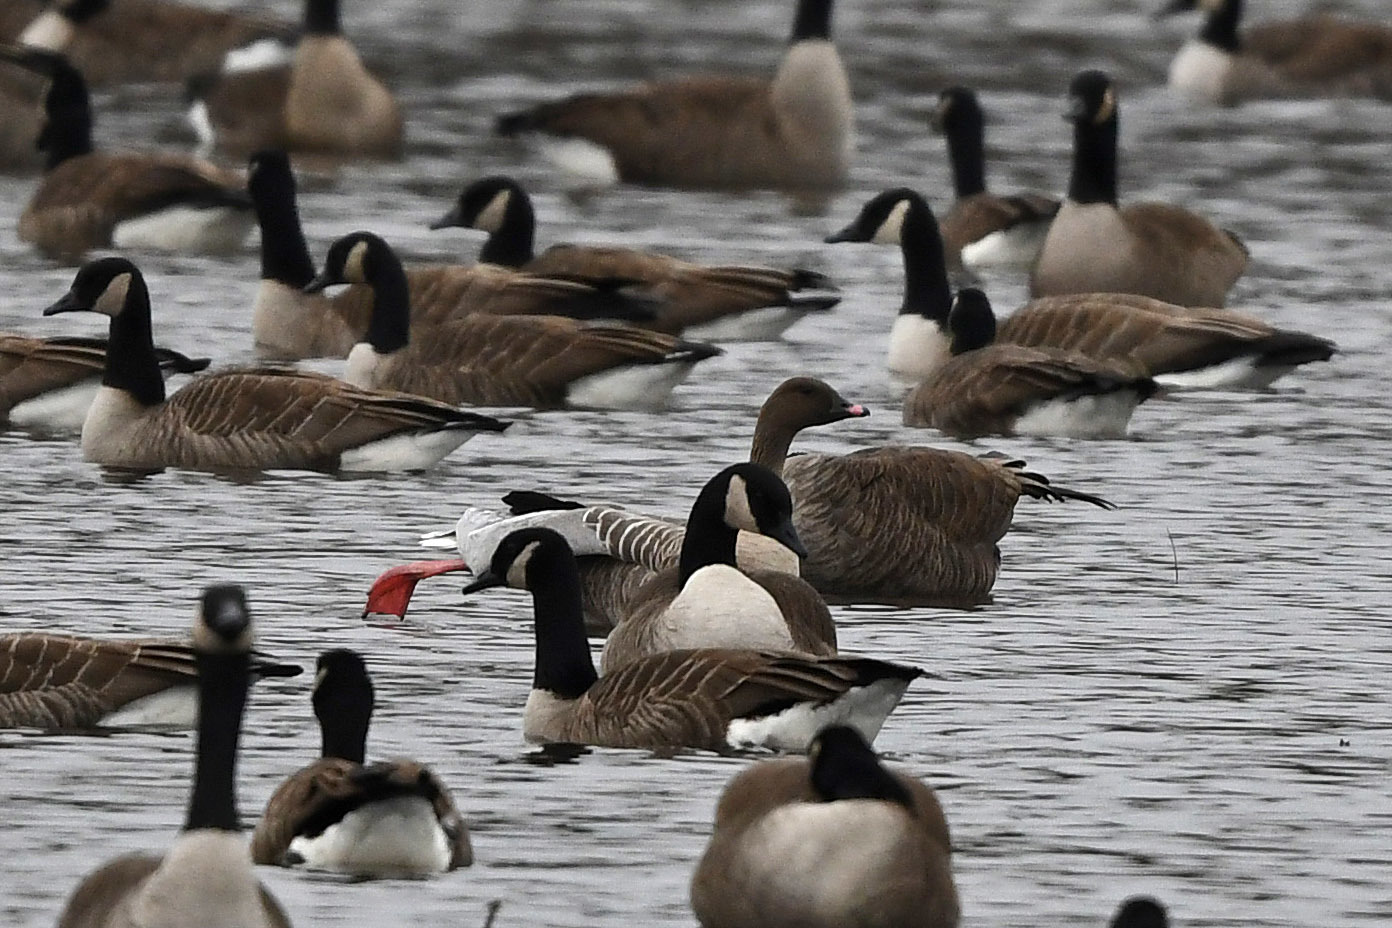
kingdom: Animalia
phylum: Chordata
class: Aves
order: Anseriformes
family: Anatidae
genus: Anser
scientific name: Anser brachyrhynchus
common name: Pink-footed goose
